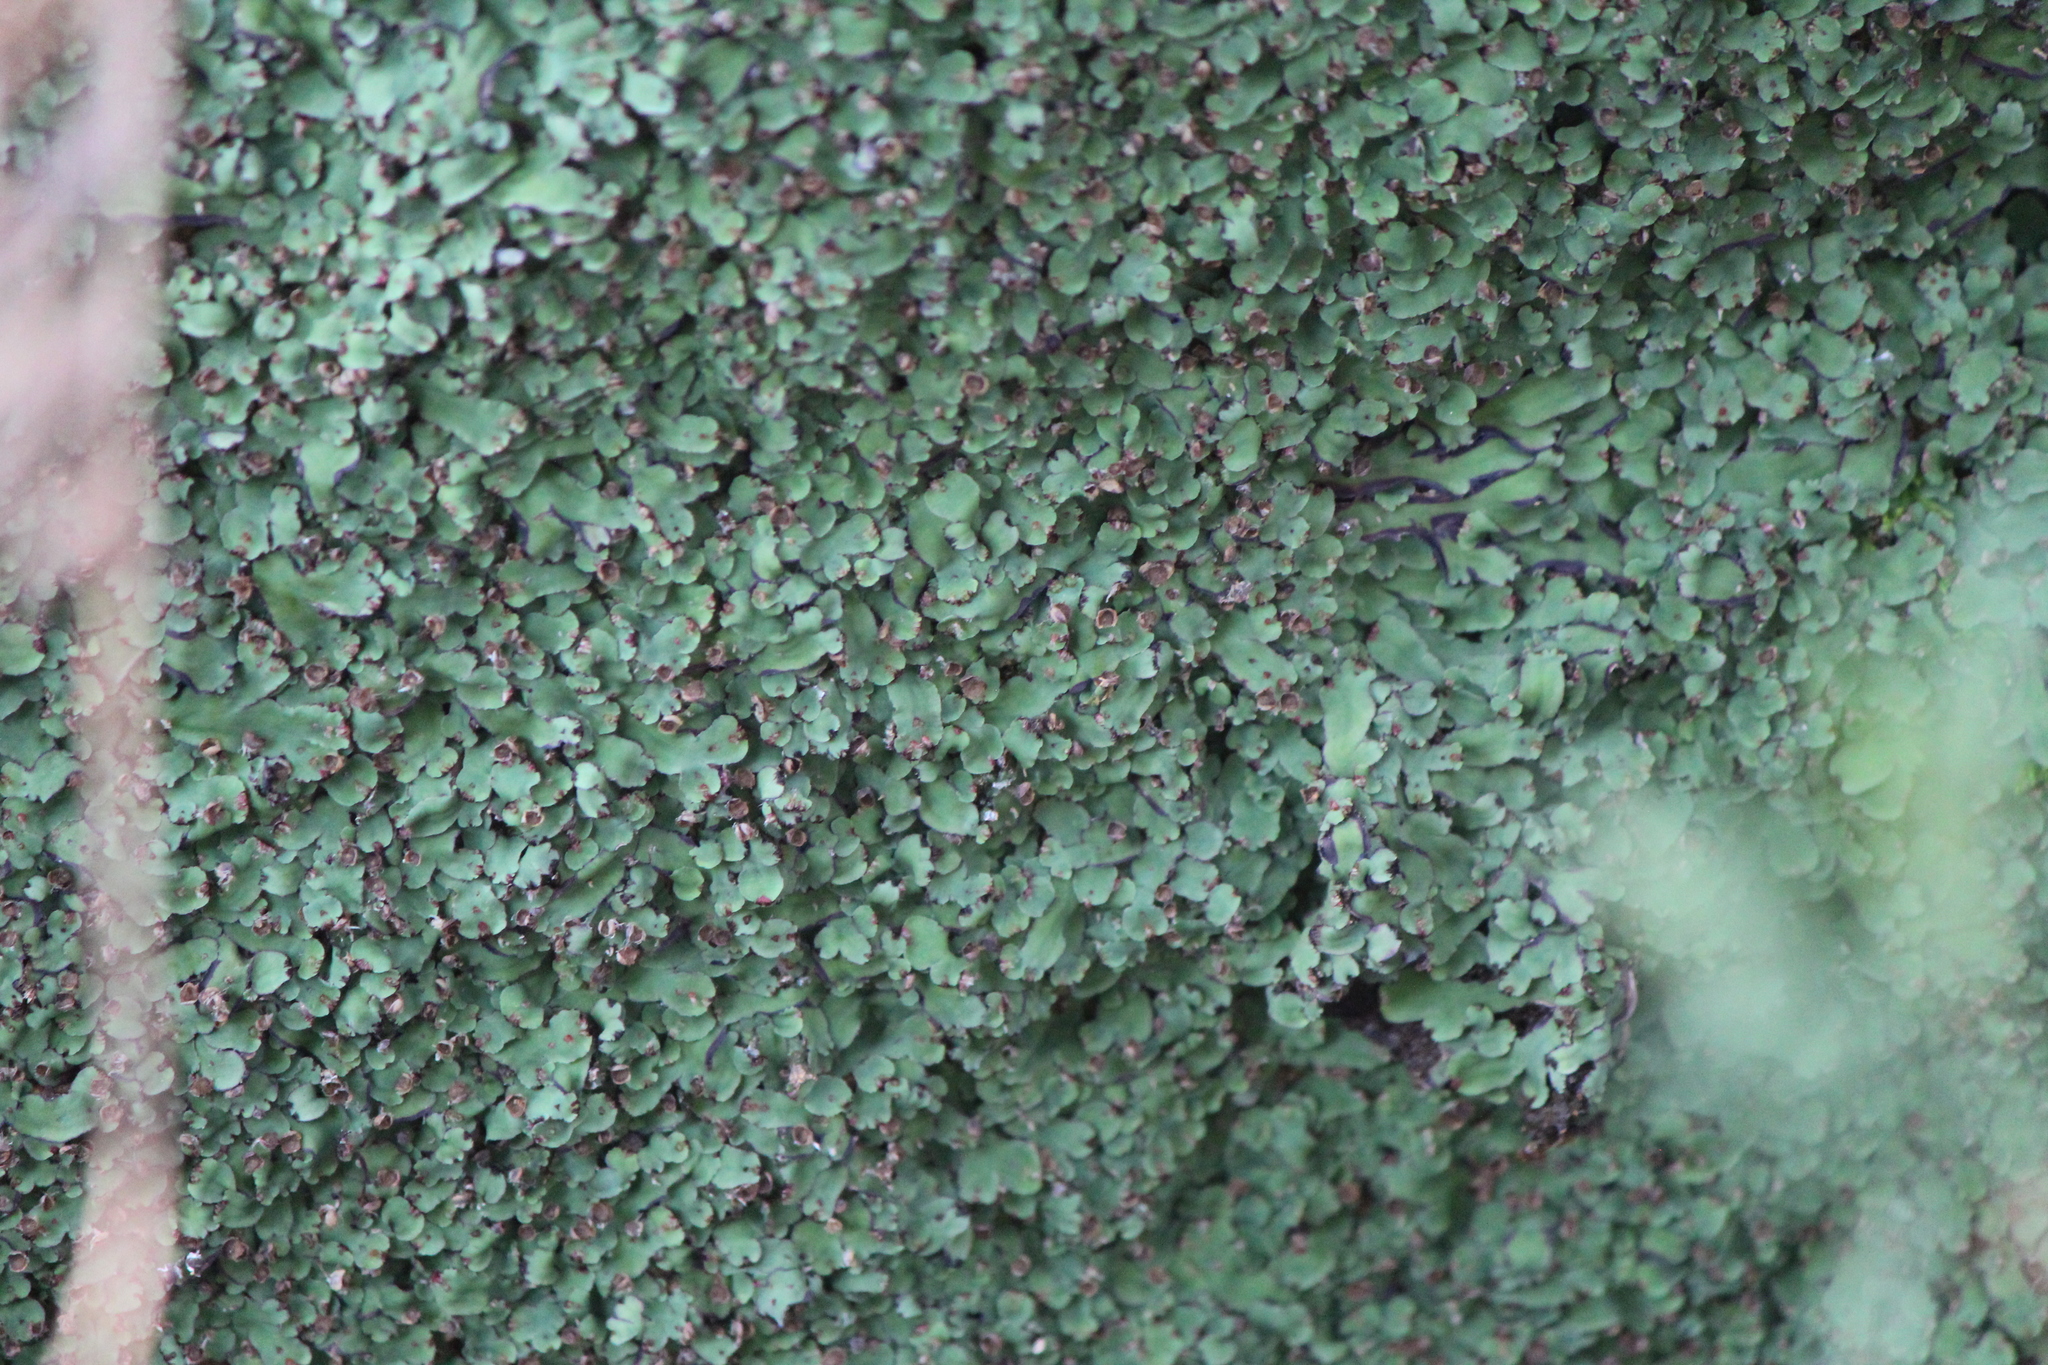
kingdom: Plantae
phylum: Marchantiophyta
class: Marchantiopsida
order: Marchantiales
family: Aytoniaceae
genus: Plagiochasma
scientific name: Plagiochasma rupestre
